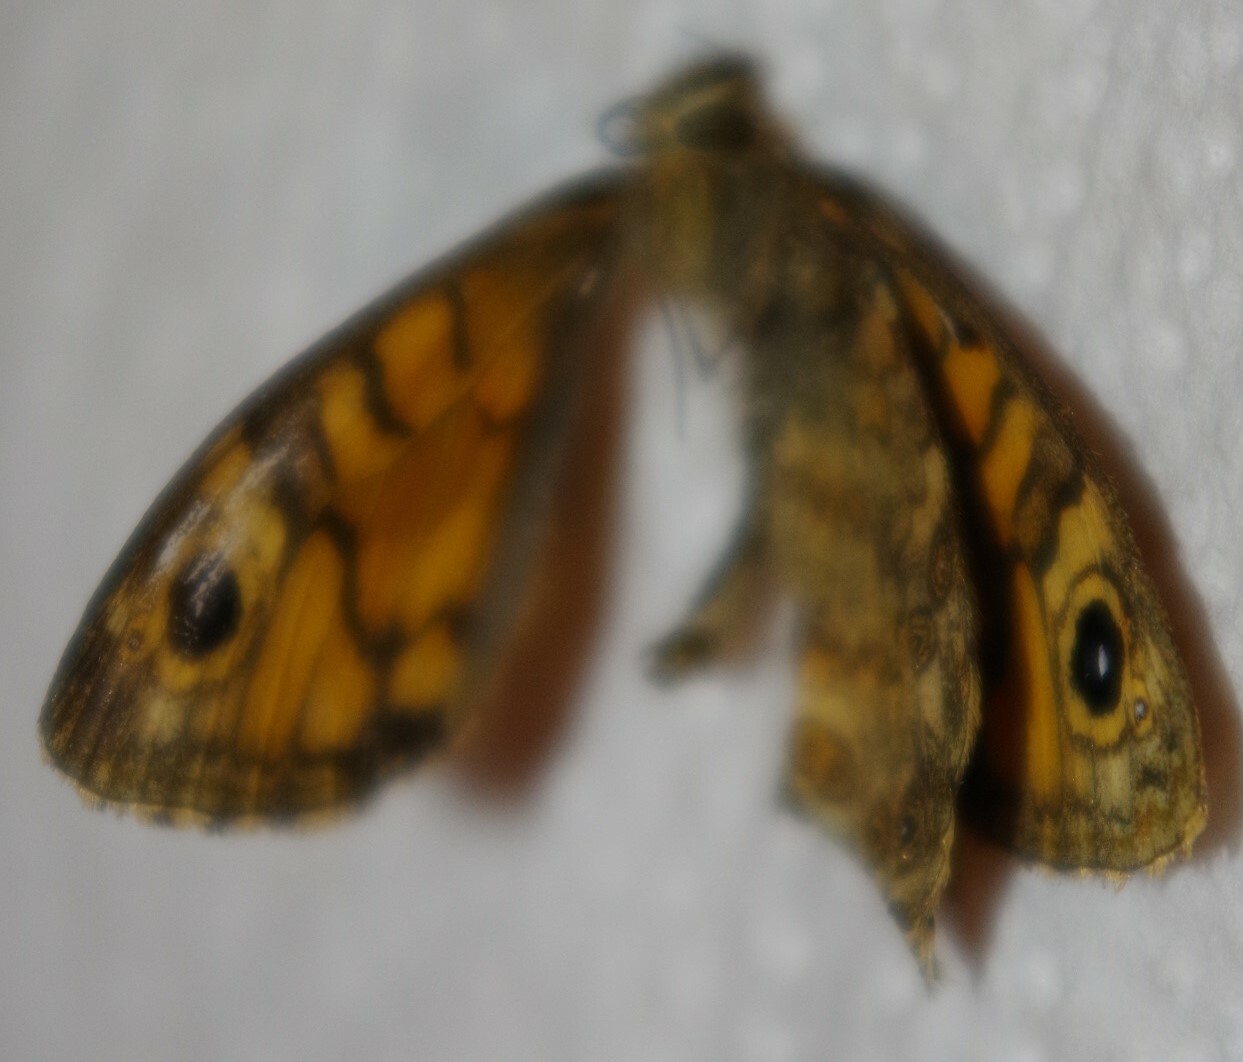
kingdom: Animalia
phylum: Arthropoda
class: Insecta
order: Lepidoptera
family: Nymphalidae
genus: Pararge
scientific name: Pararge Lasiommata megera
